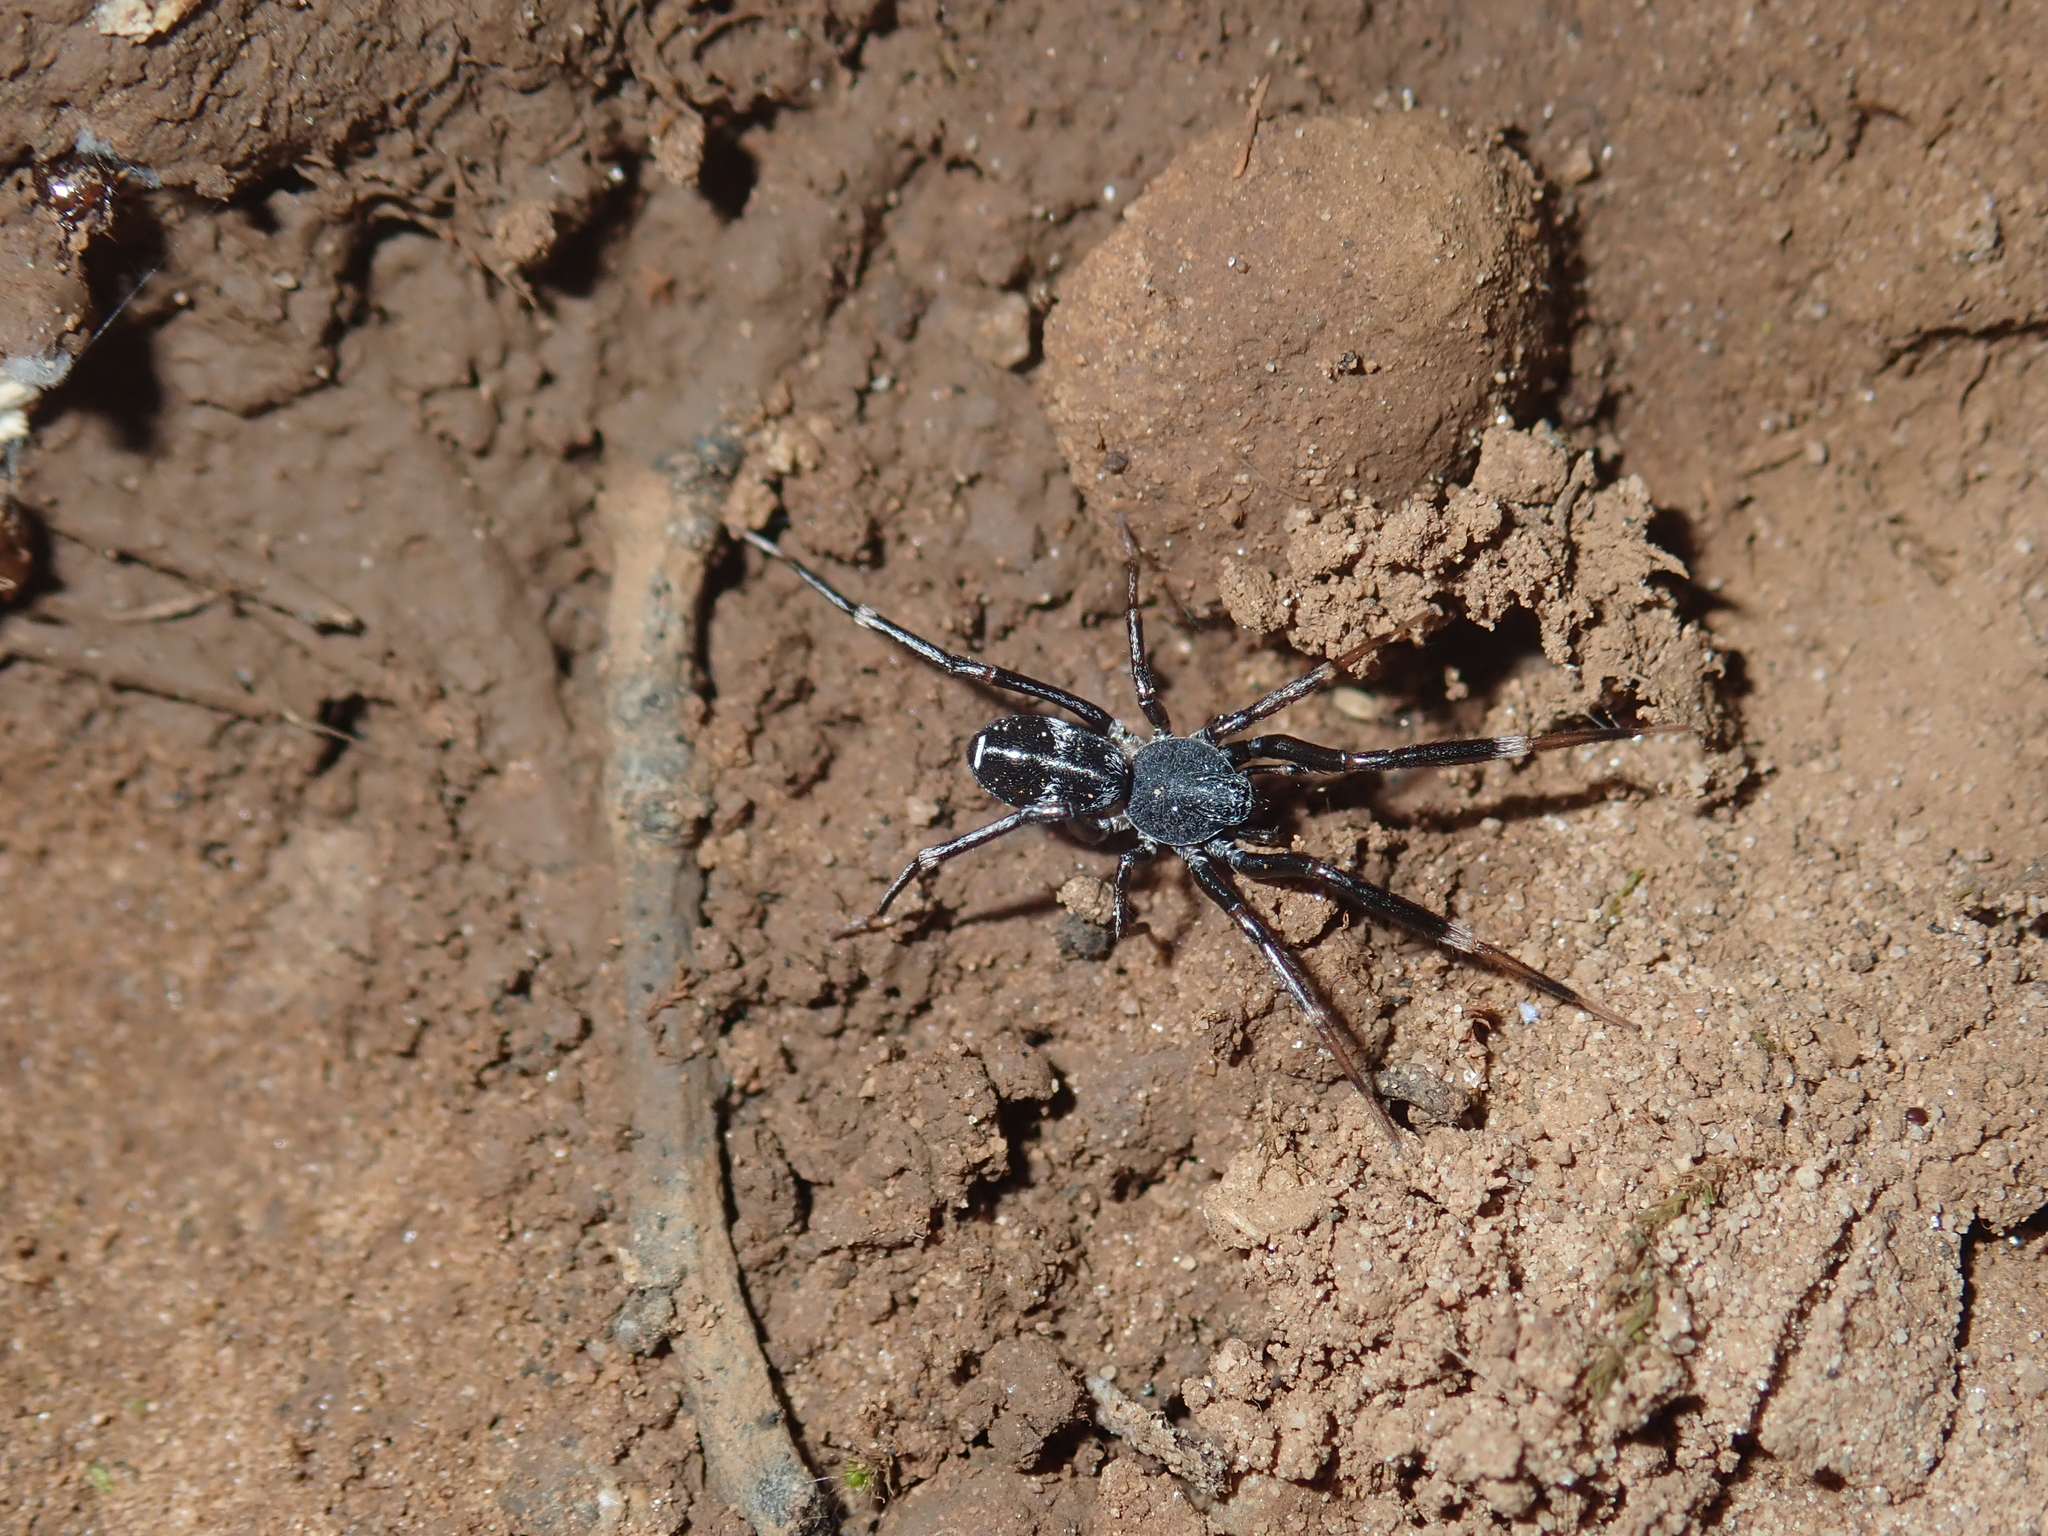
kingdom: Animalia
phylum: Arthropoda
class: Arachnida
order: Araneae
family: Phrurolithidae
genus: Liophrurillus
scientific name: Liophrurillus flavitarsis
